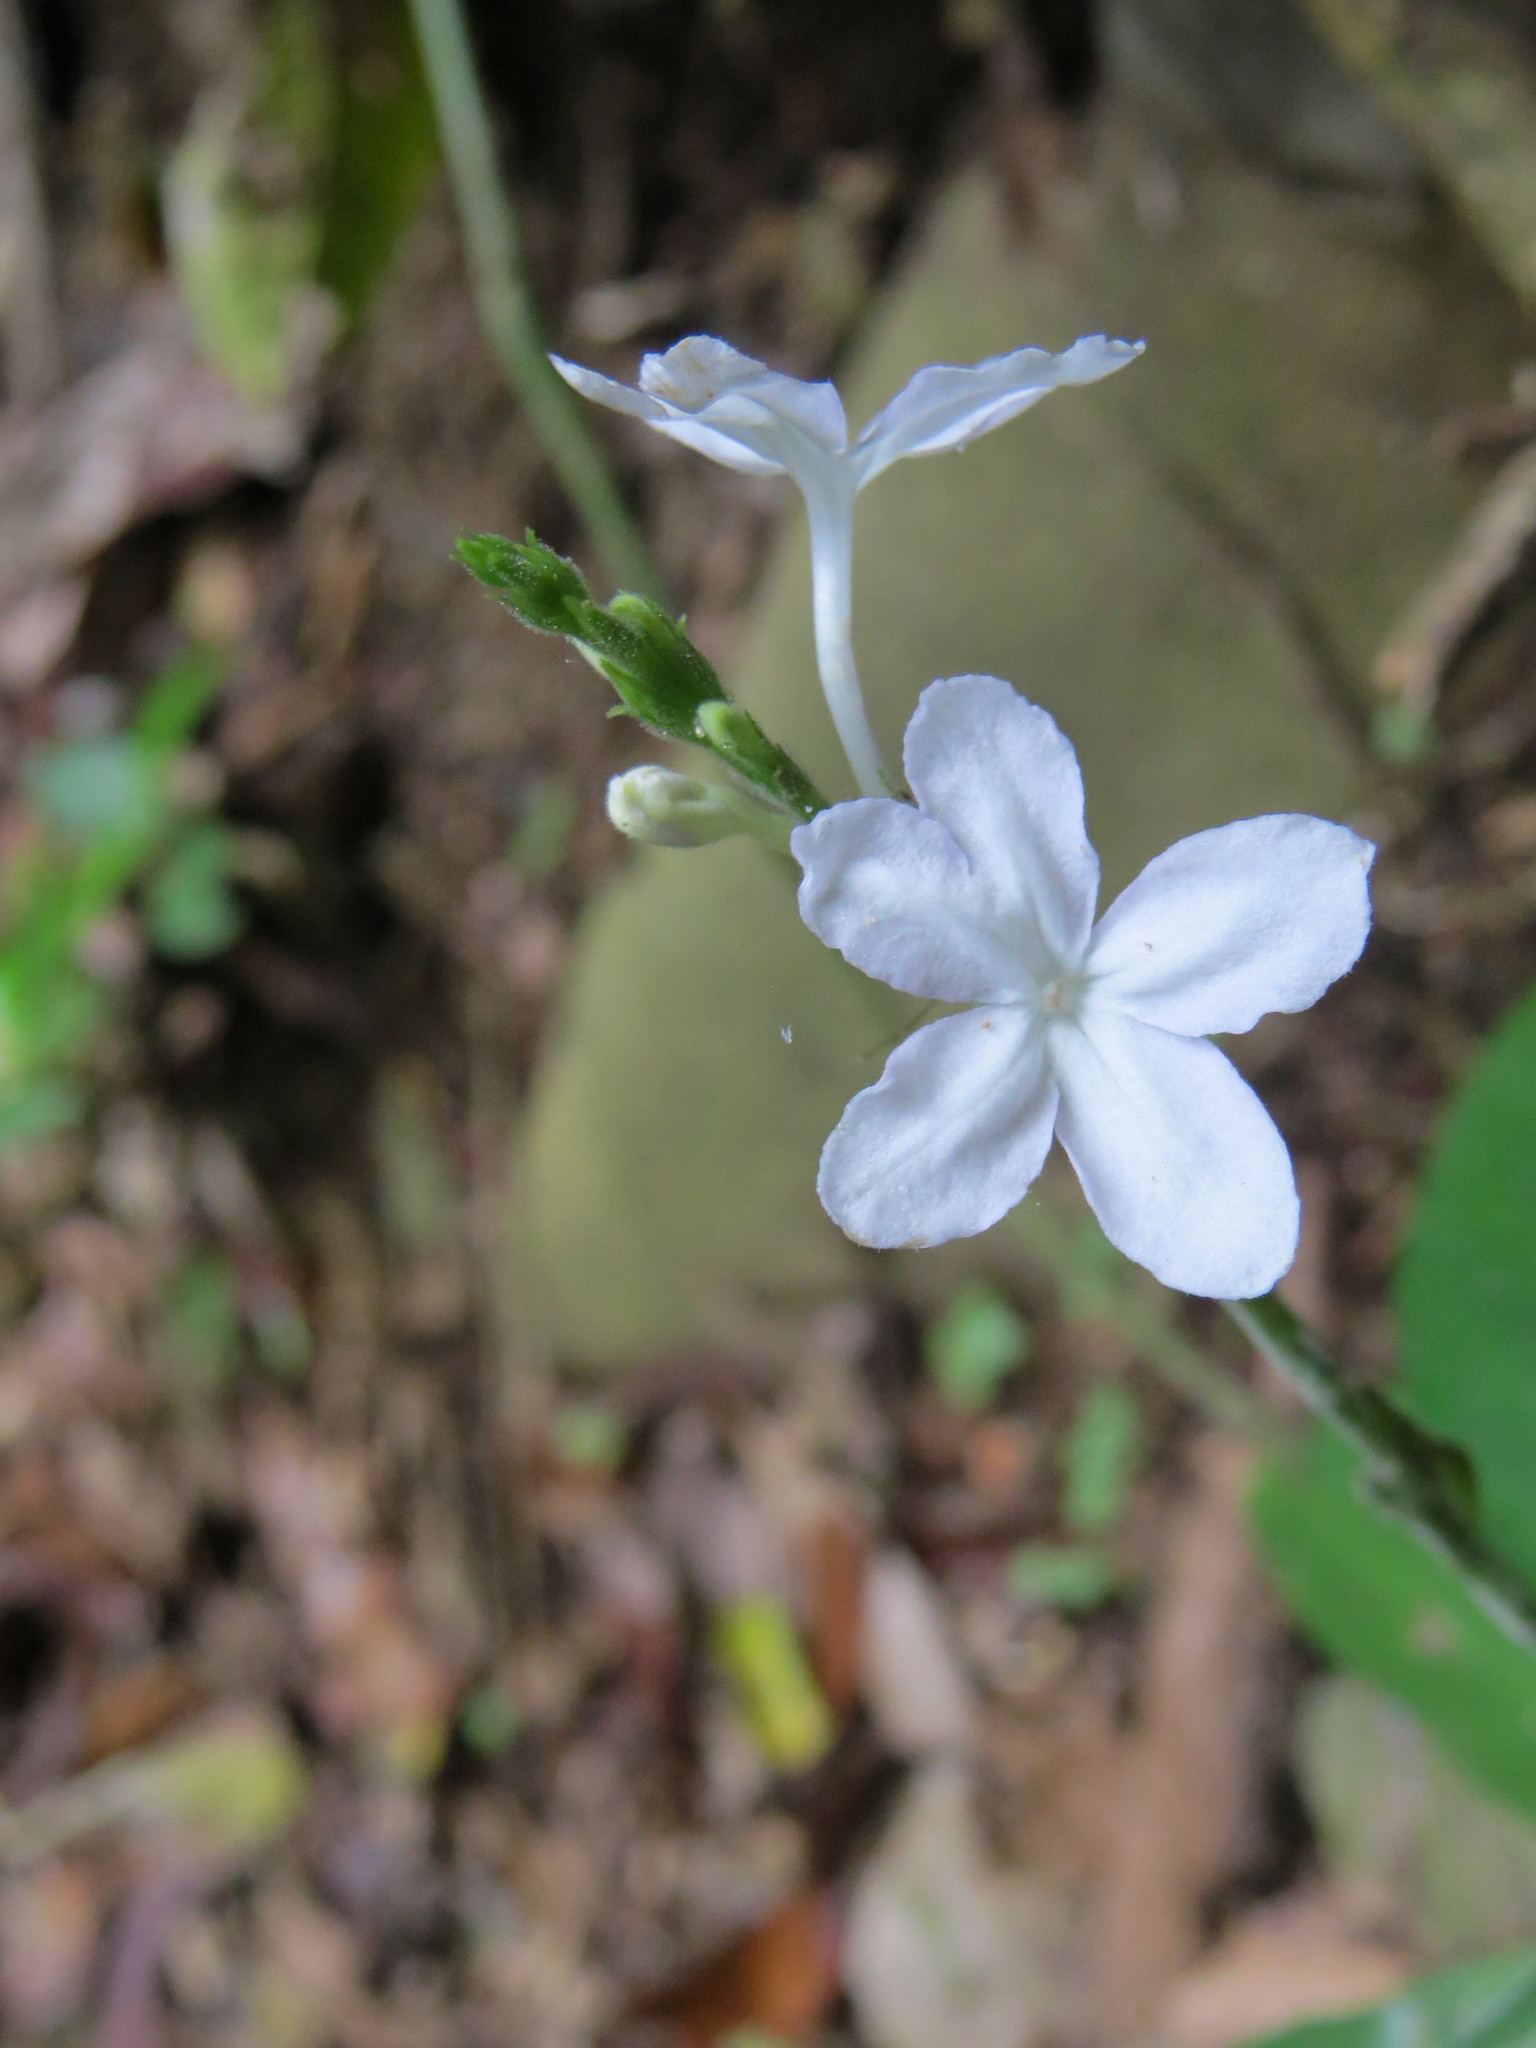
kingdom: Plantae
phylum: Tracheophyta
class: Magnoliopsida
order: Lamiales
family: Acanthaceae
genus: Pseuderanthemum
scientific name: Pseuderanthemum corcovadense
